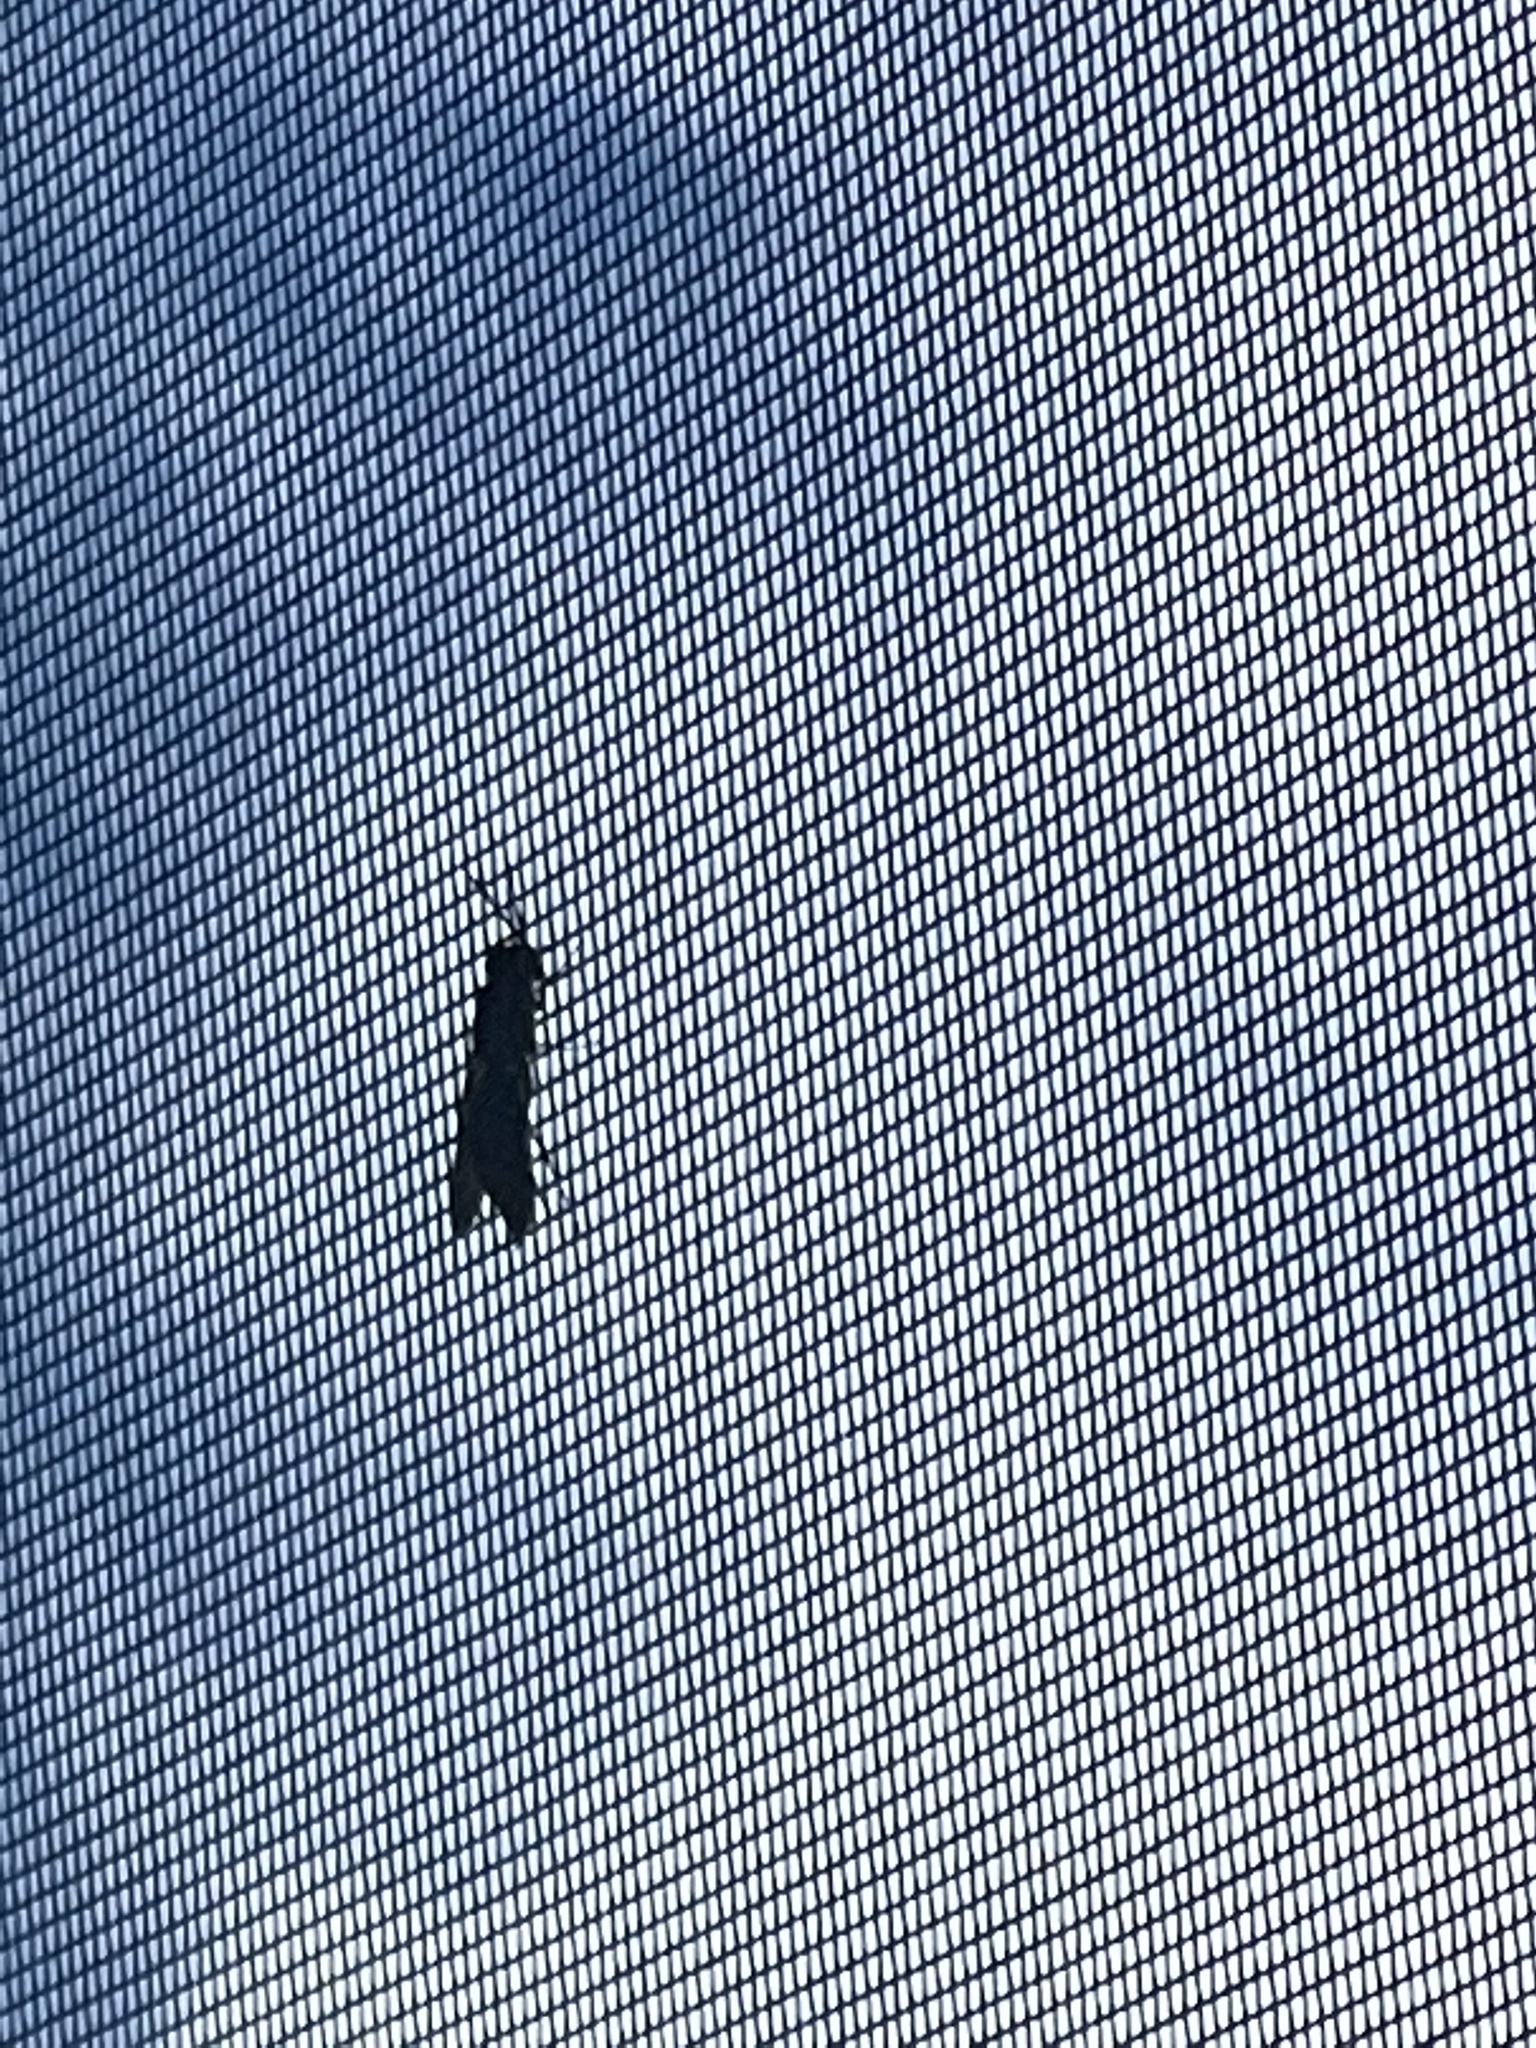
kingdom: Animalia
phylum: Arthropoda
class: Insecta
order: Diptera
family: Stratiomyidae
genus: Hermetia
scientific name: Hermetia illucens
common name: Black soldier fly
